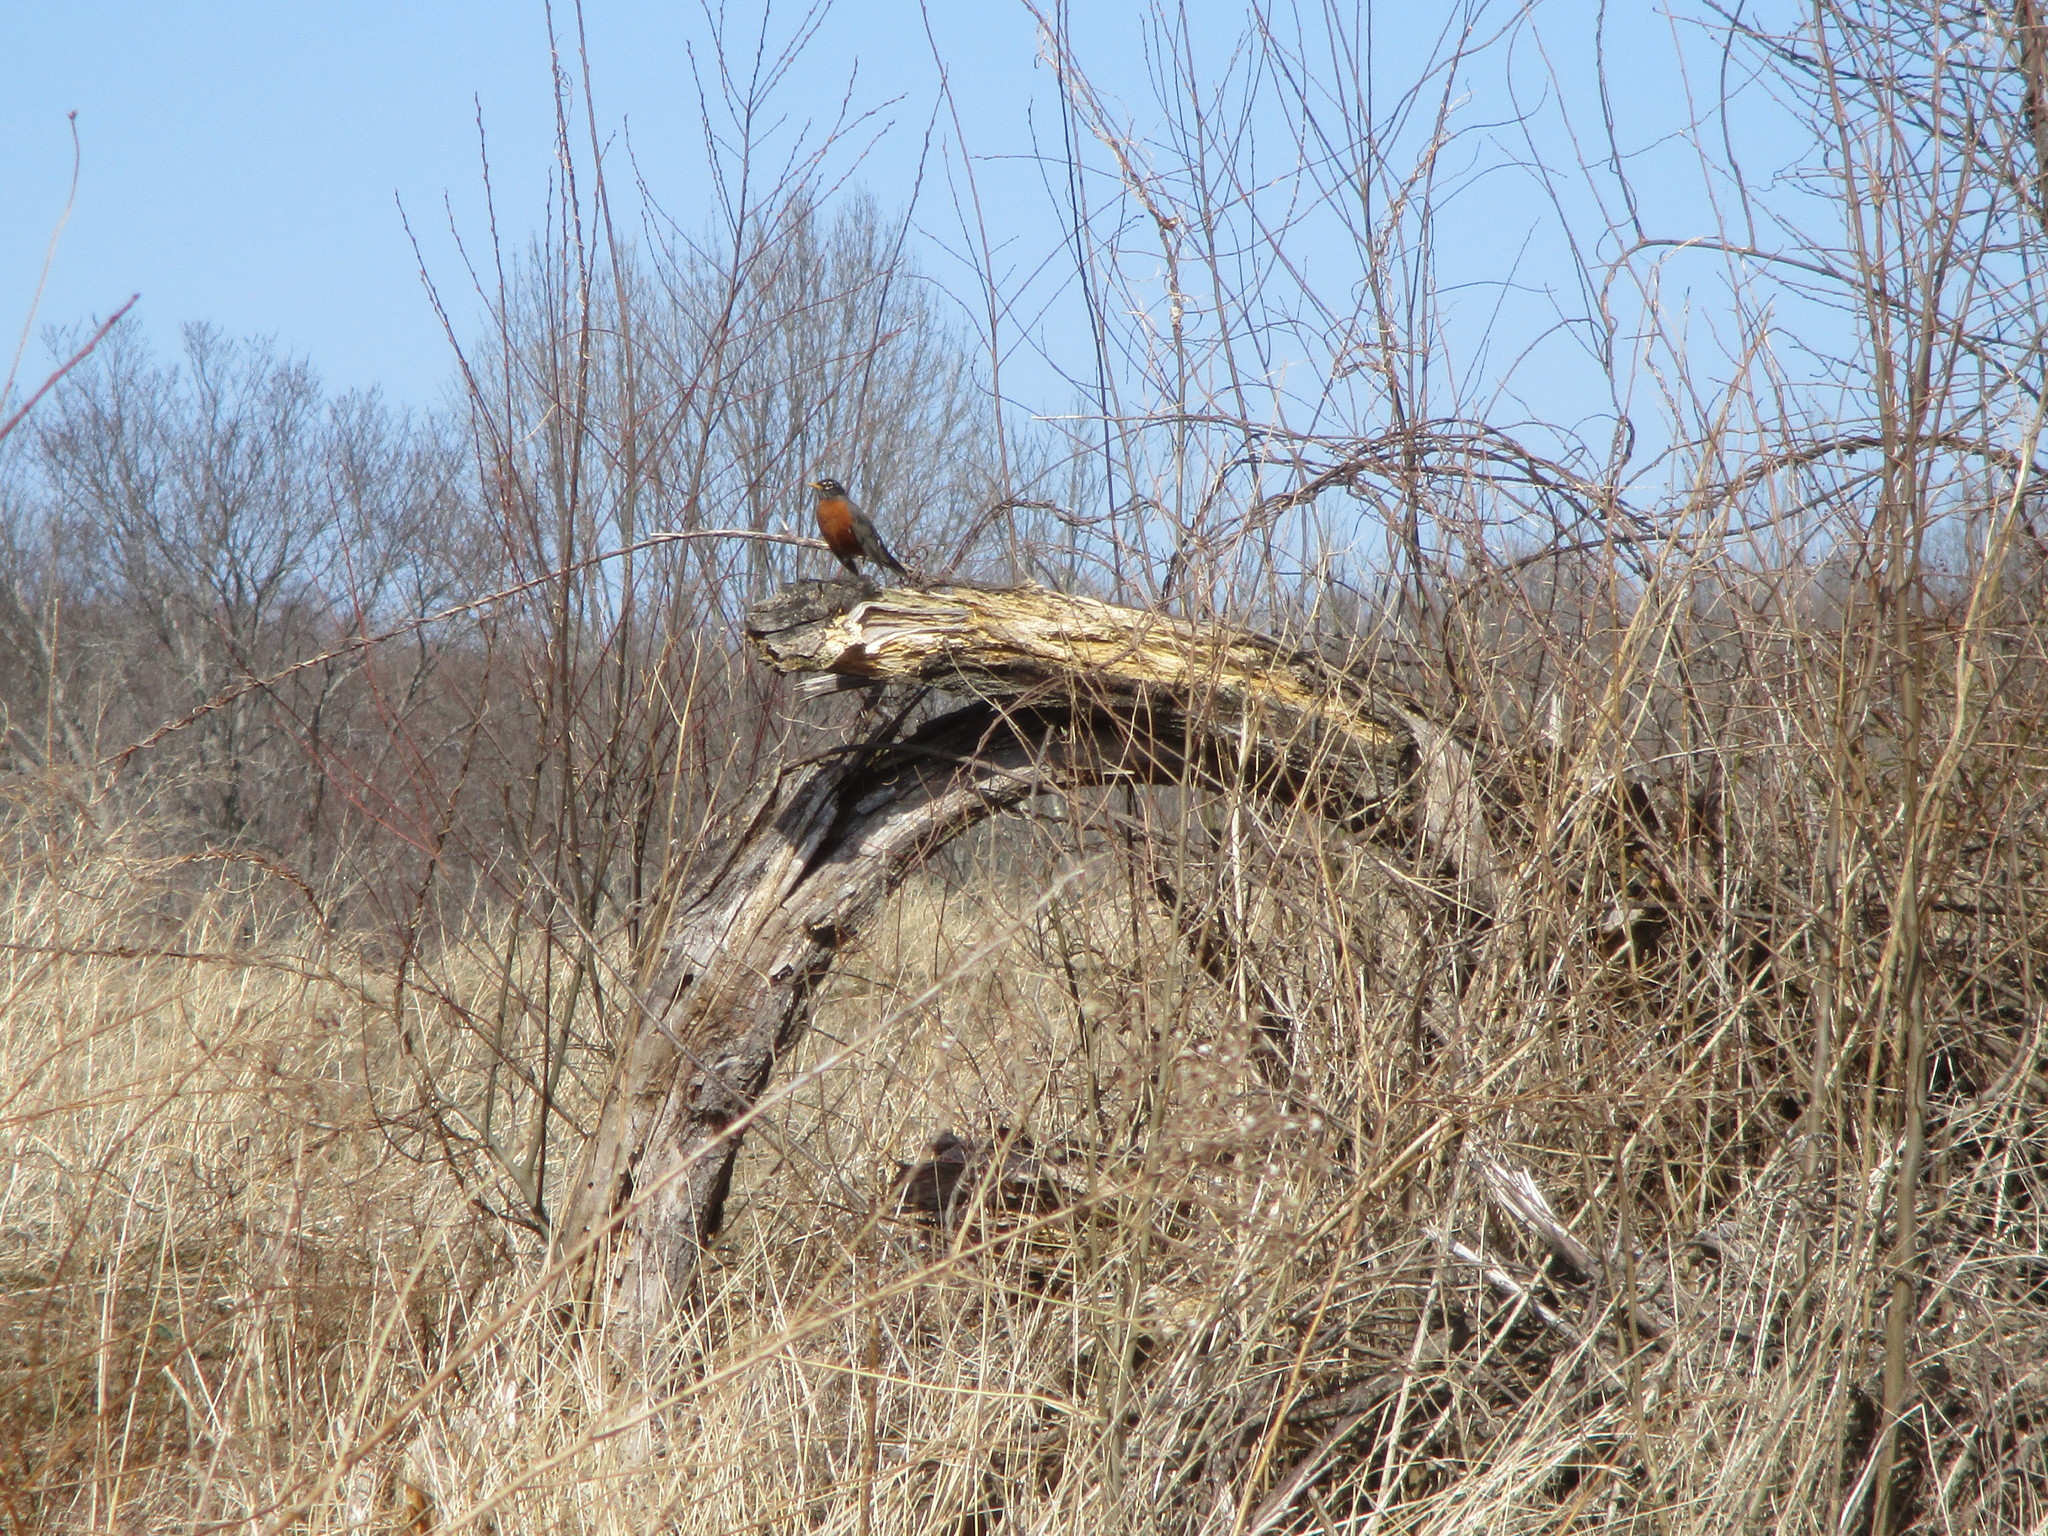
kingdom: Animalia
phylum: Chordata
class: Aves
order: Passeriformes
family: Turdidae
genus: Turdus
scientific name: Turdus migratorius
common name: American robin
